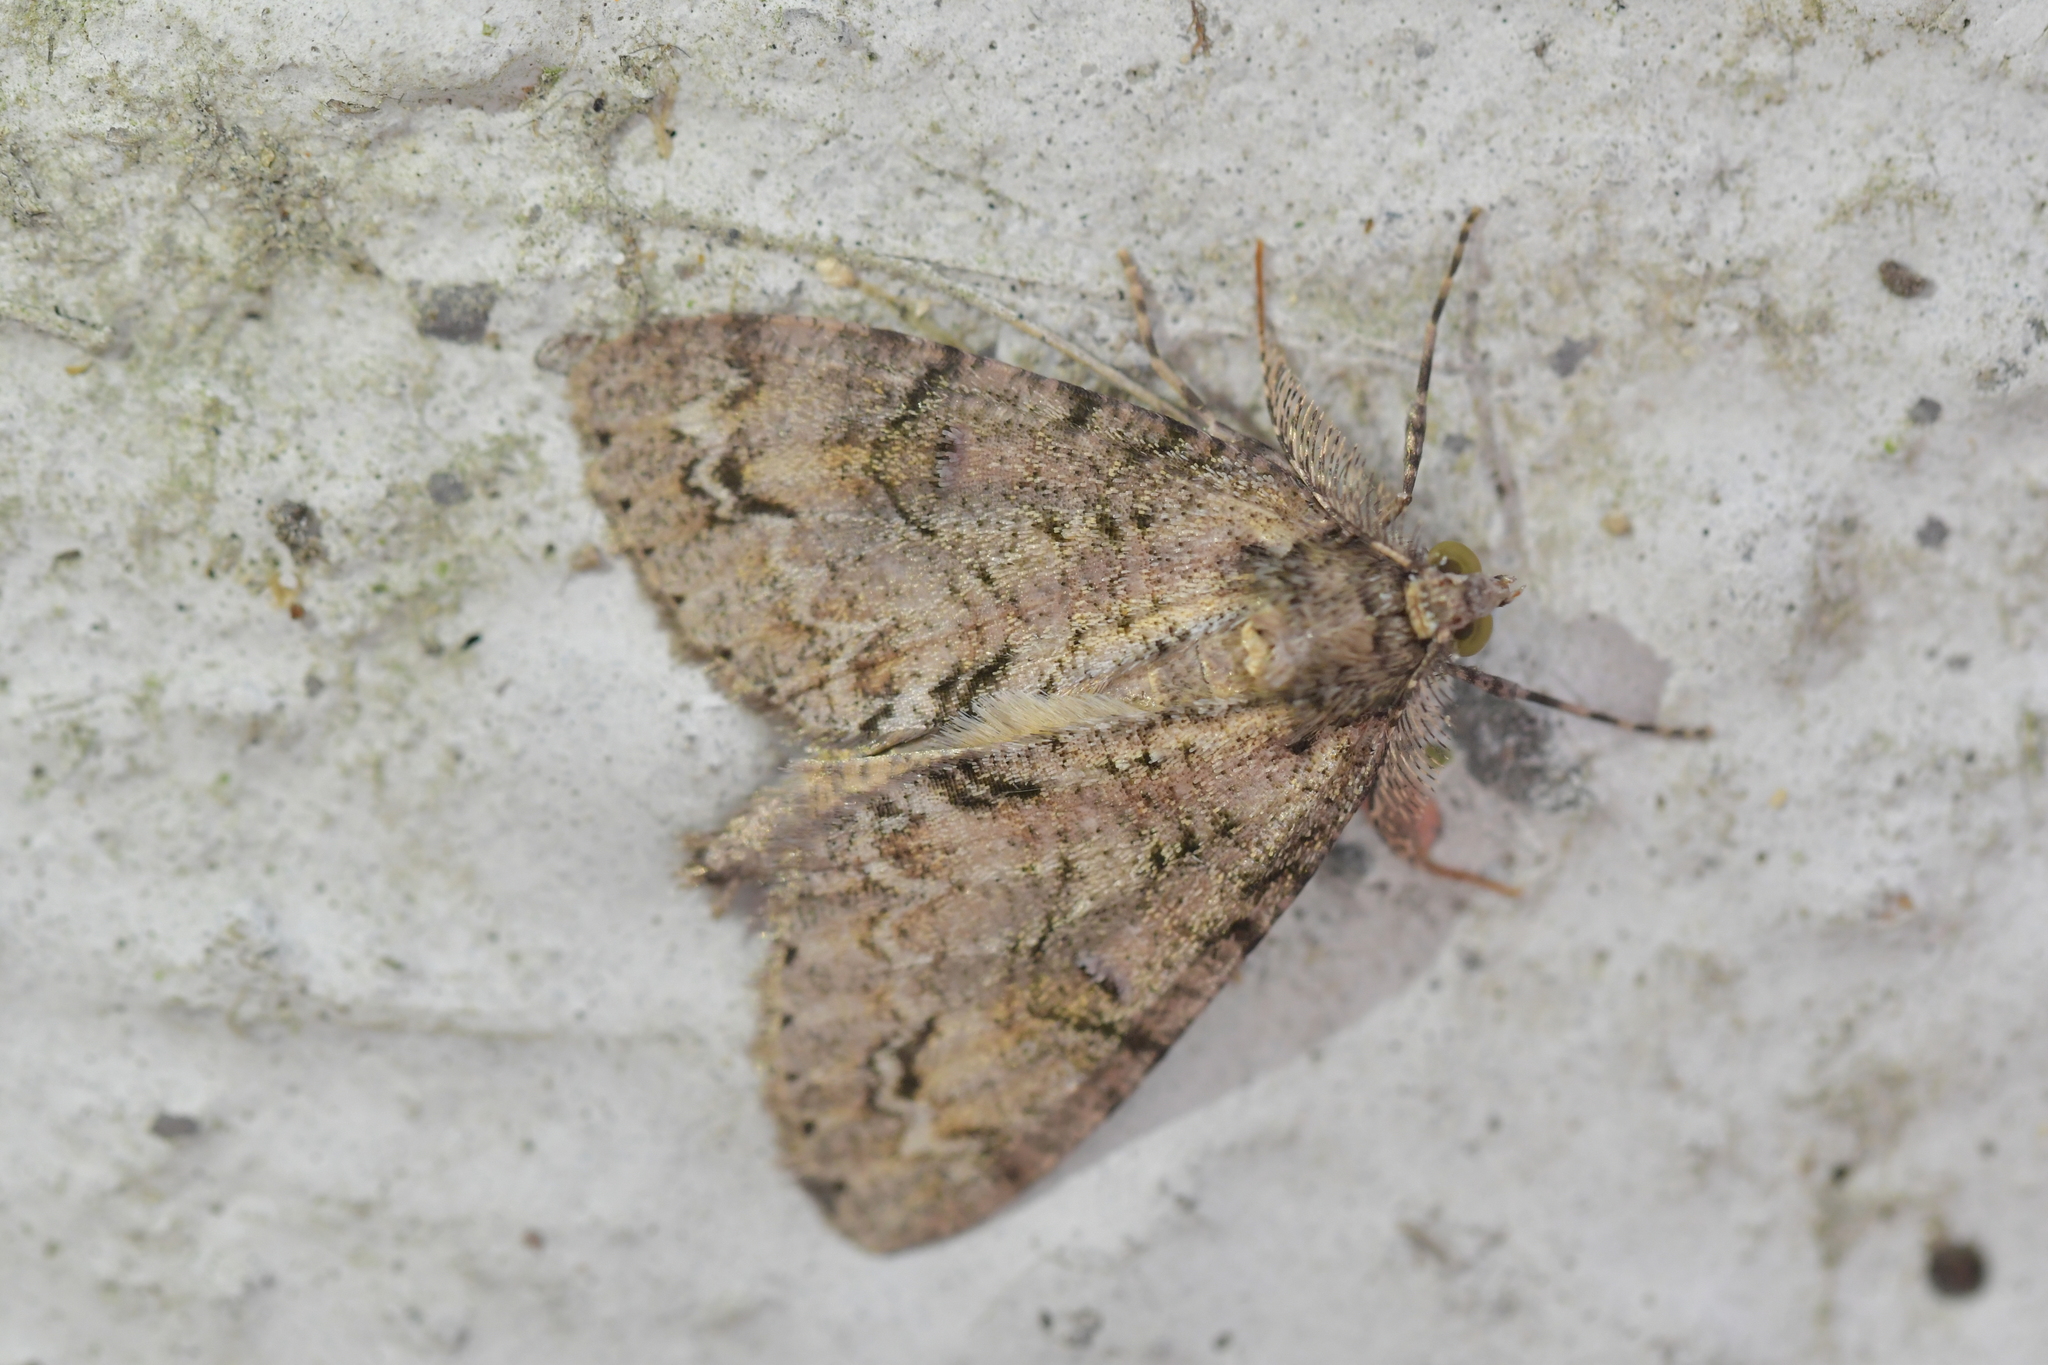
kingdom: Animalia
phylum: Arthropoda
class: Insecta
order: Lepidoptera
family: Geometridae
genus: Pseudocoremia
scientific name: Pseudocoremia suavis
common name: Common forest looper
